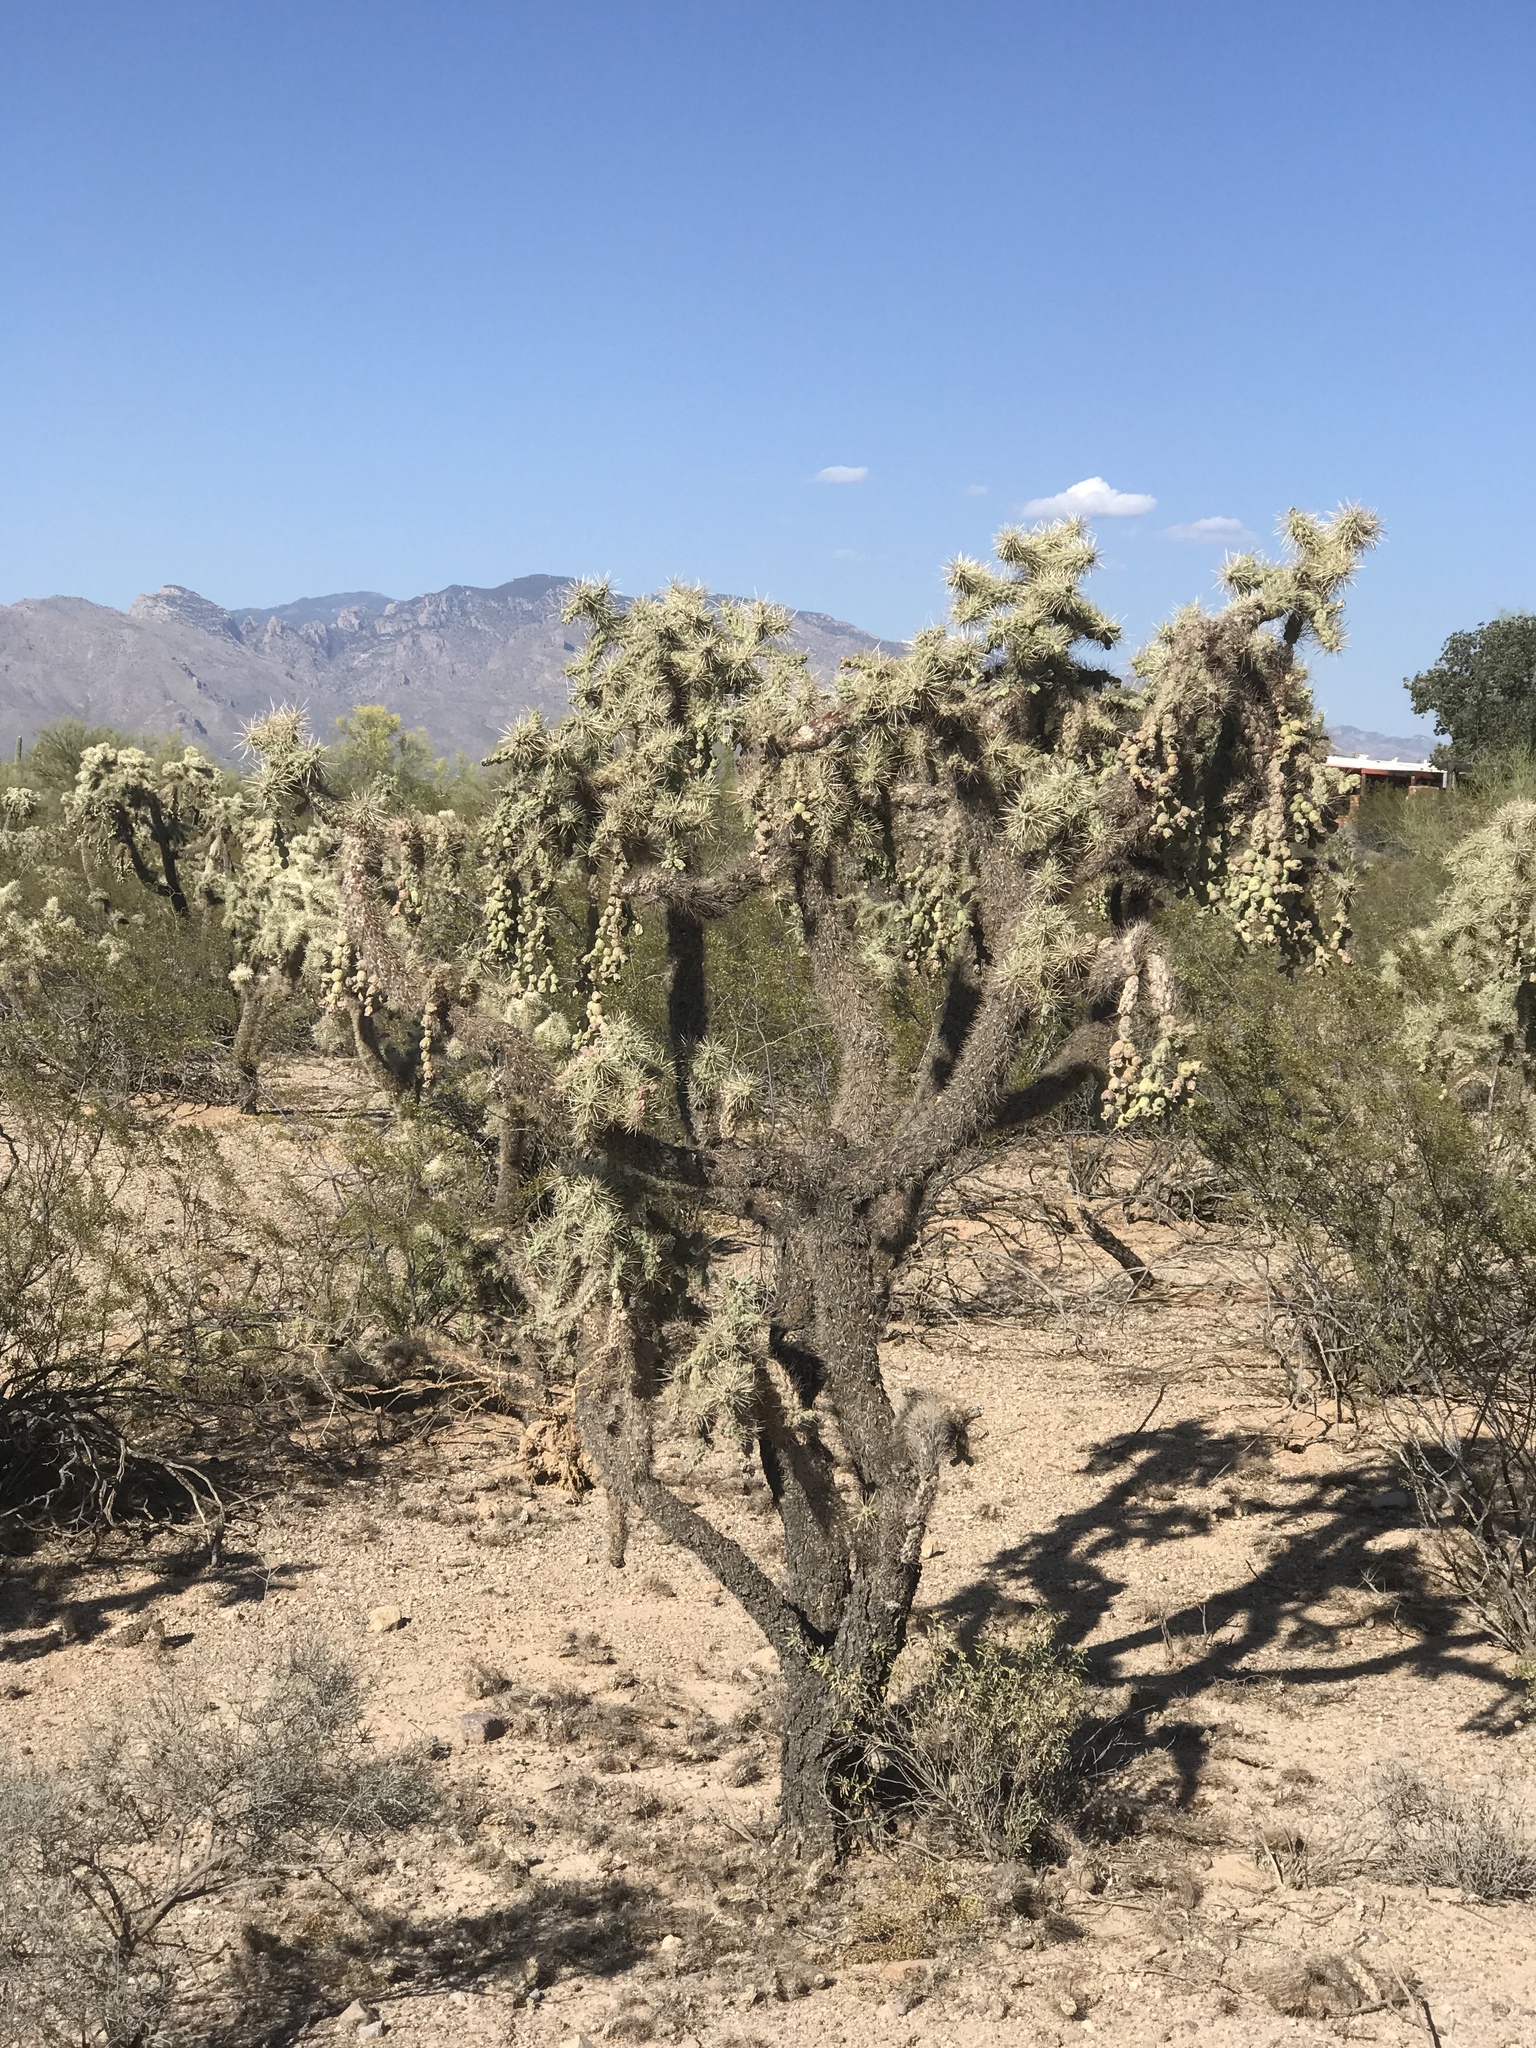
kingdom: Plantae
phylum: Tracheophyta
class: Magnoliopsida
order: Caryophyllales
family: Cactaceae
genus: Cylindropuntia
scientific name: Cylindropuntia fulgida
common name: Jumping cholla
